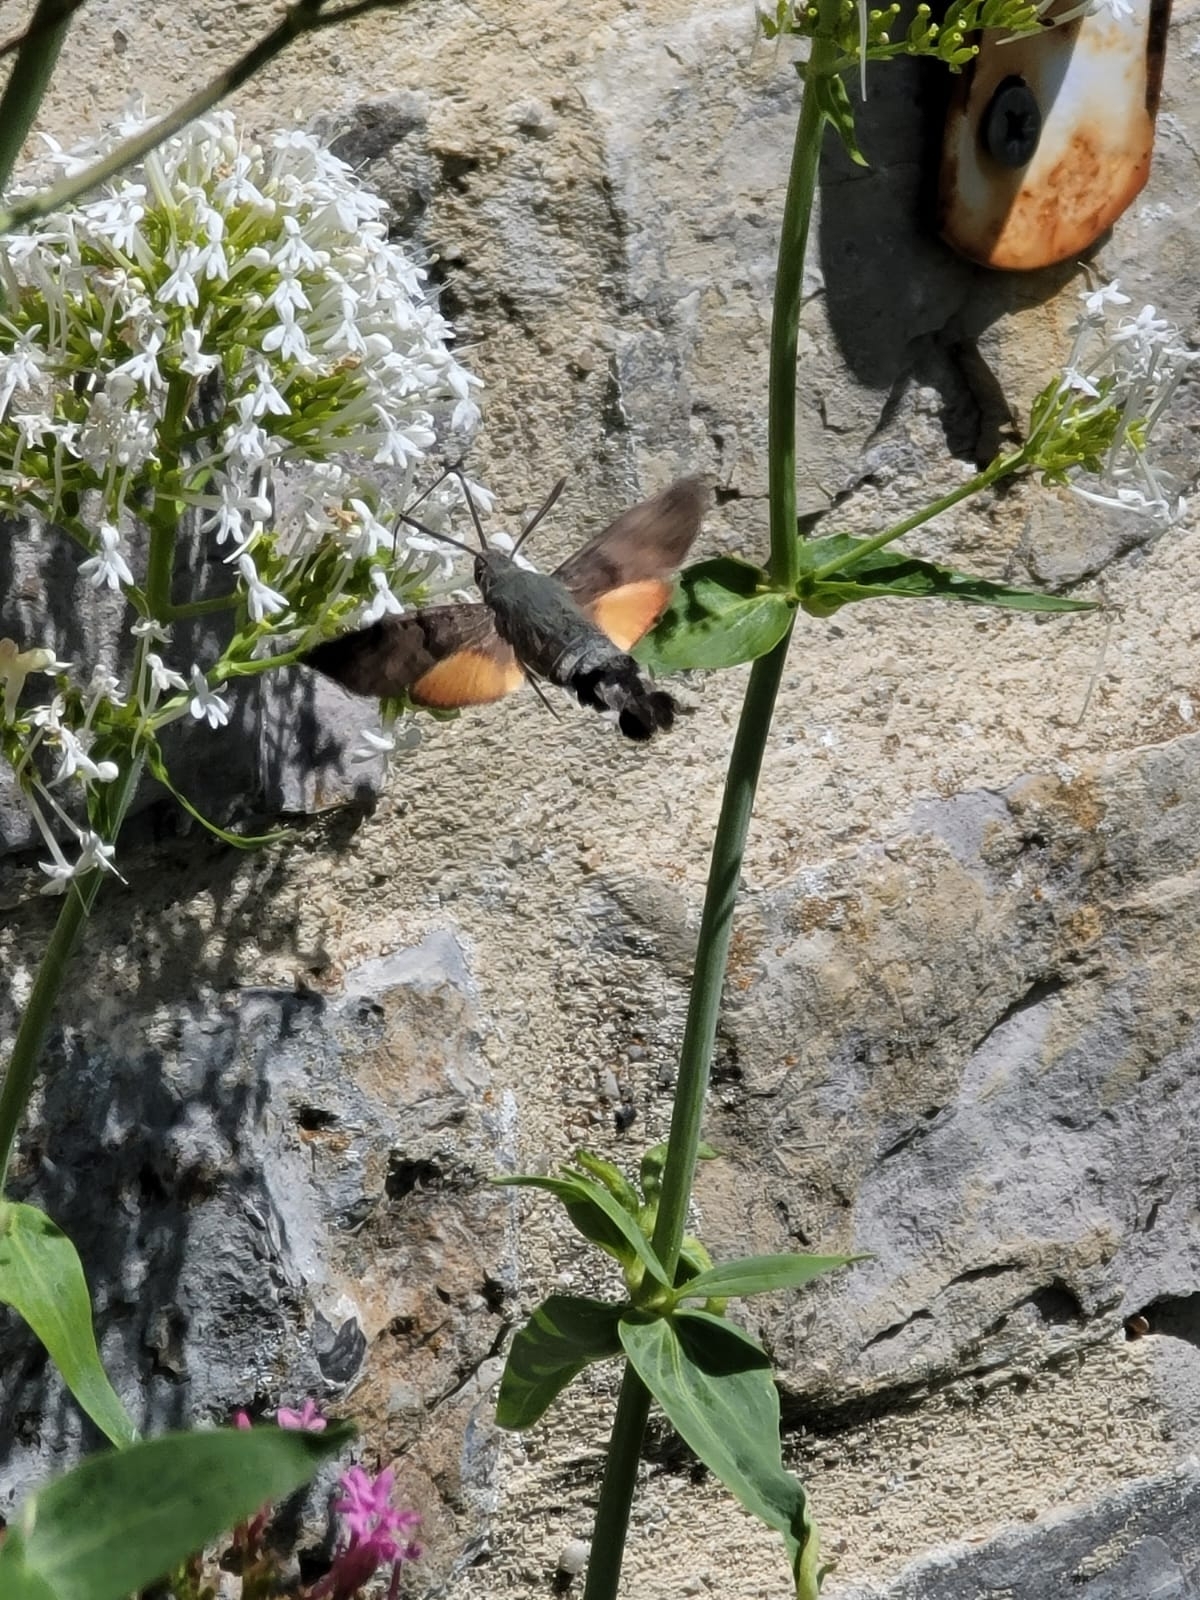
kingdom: Animalia
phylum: Arthropoda
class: Insecta
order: Lepidoptera
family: Sphingidae
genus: Macroglossum
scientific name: Macroglossum stellatarum
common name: Humming-bird hawk-moth
